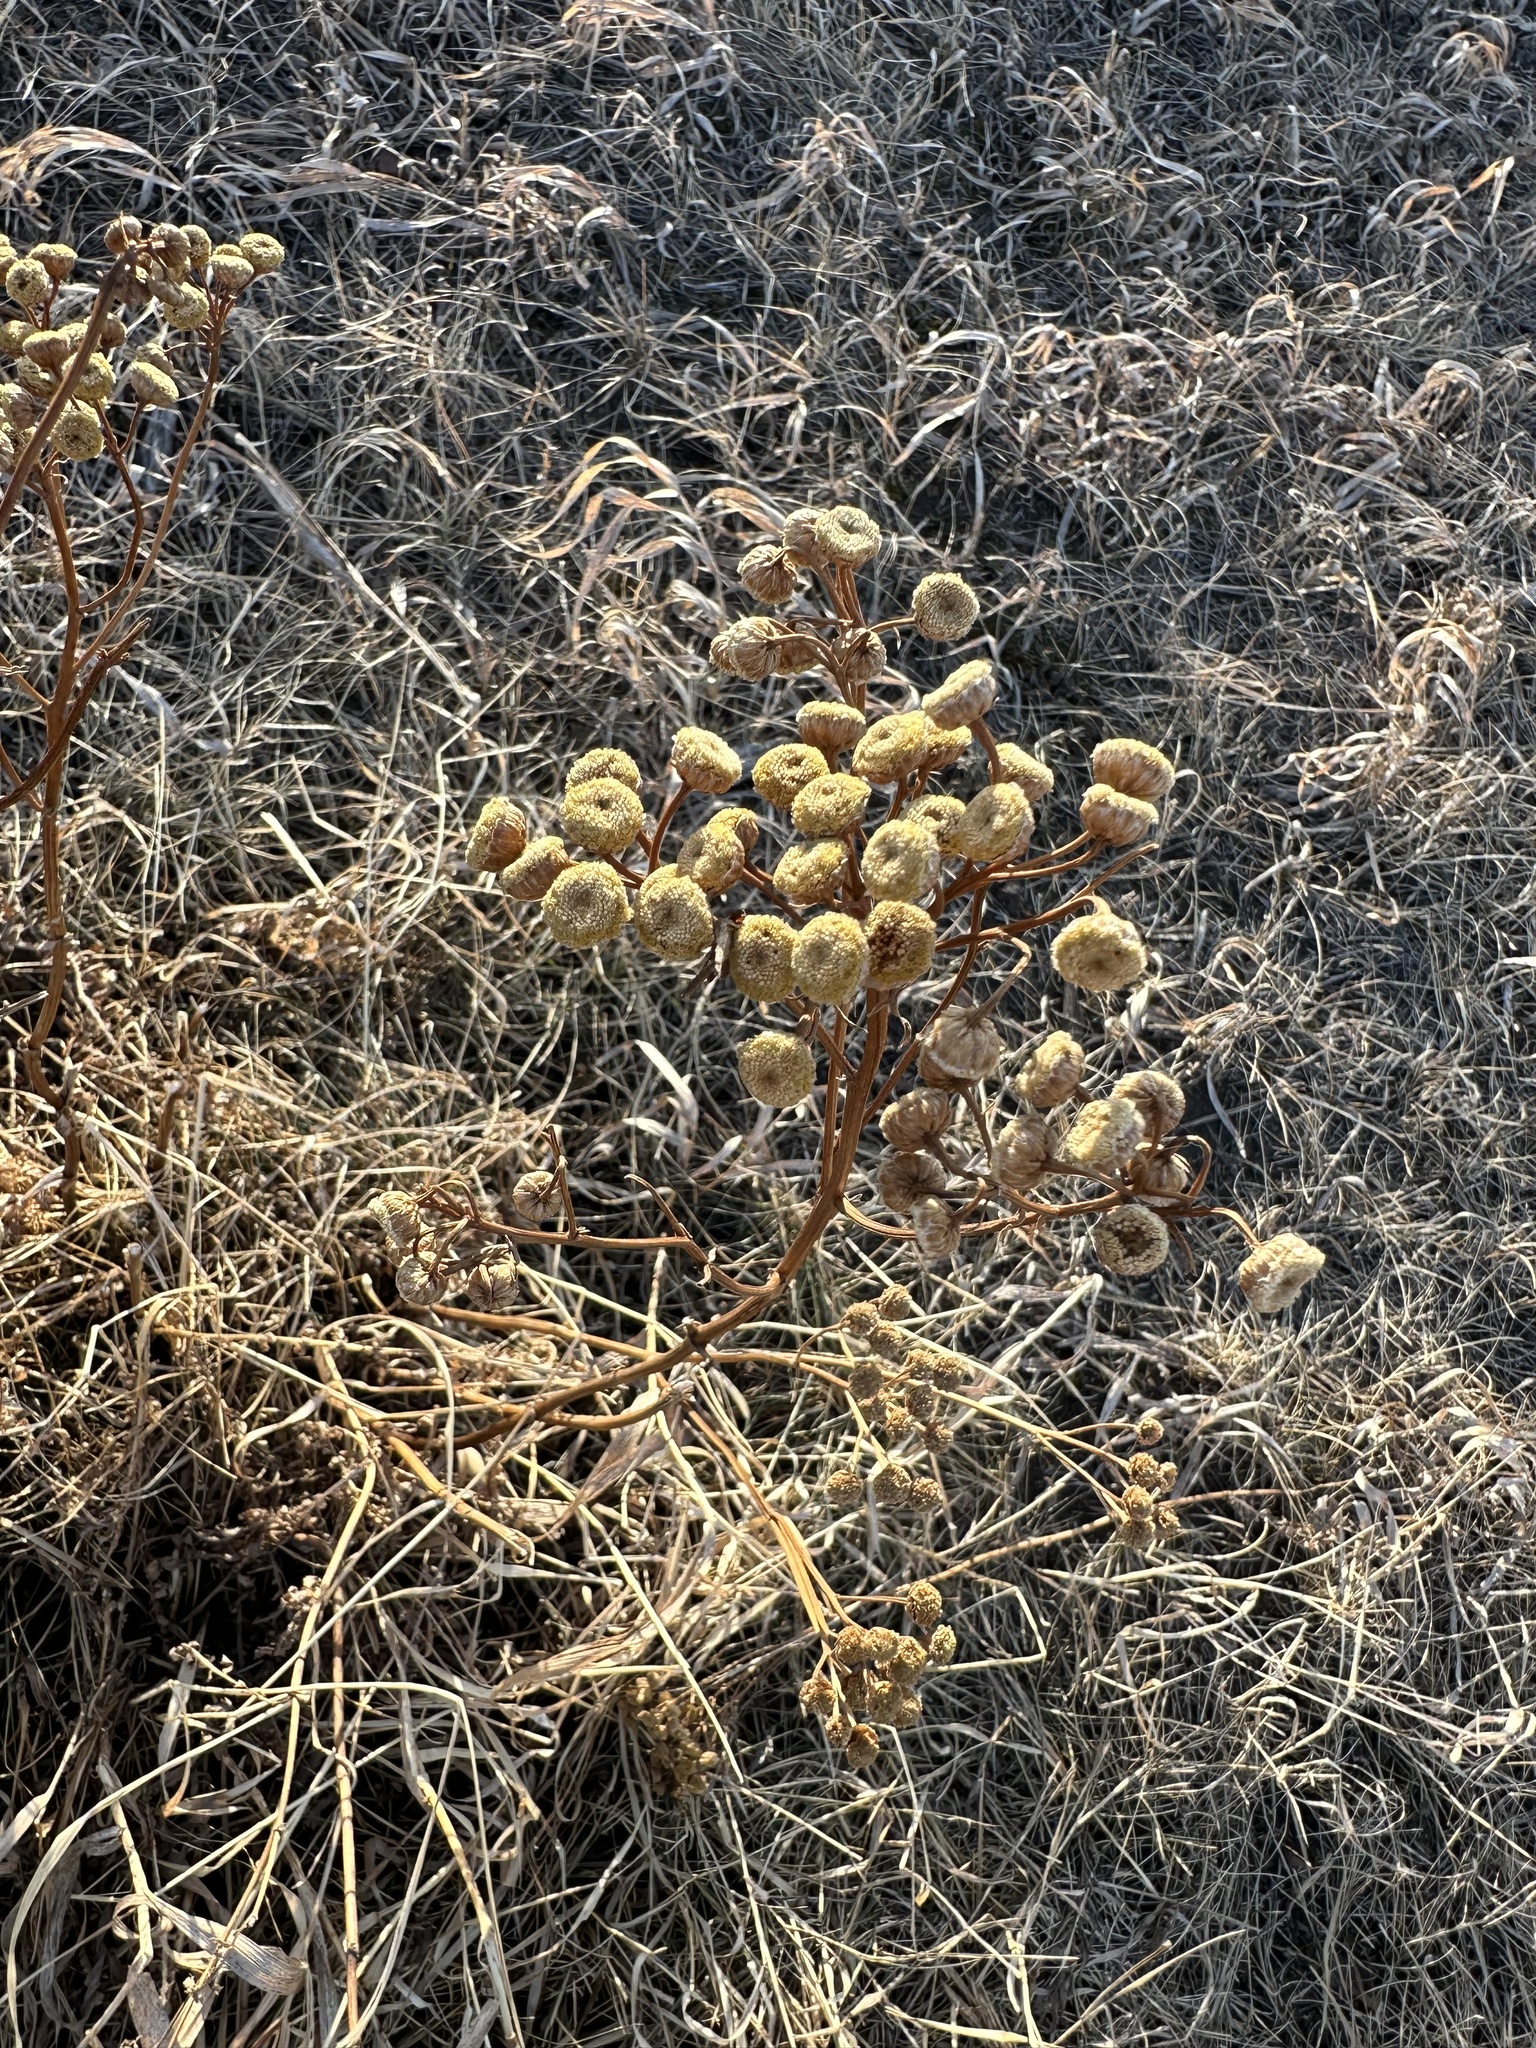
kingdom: Plantae
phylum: Tracheophyta
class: Magnoliopsida
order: Asterales
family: Asteraceae
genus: Tanacetum
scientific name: Tanacetum vulgare
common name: Common tansy
